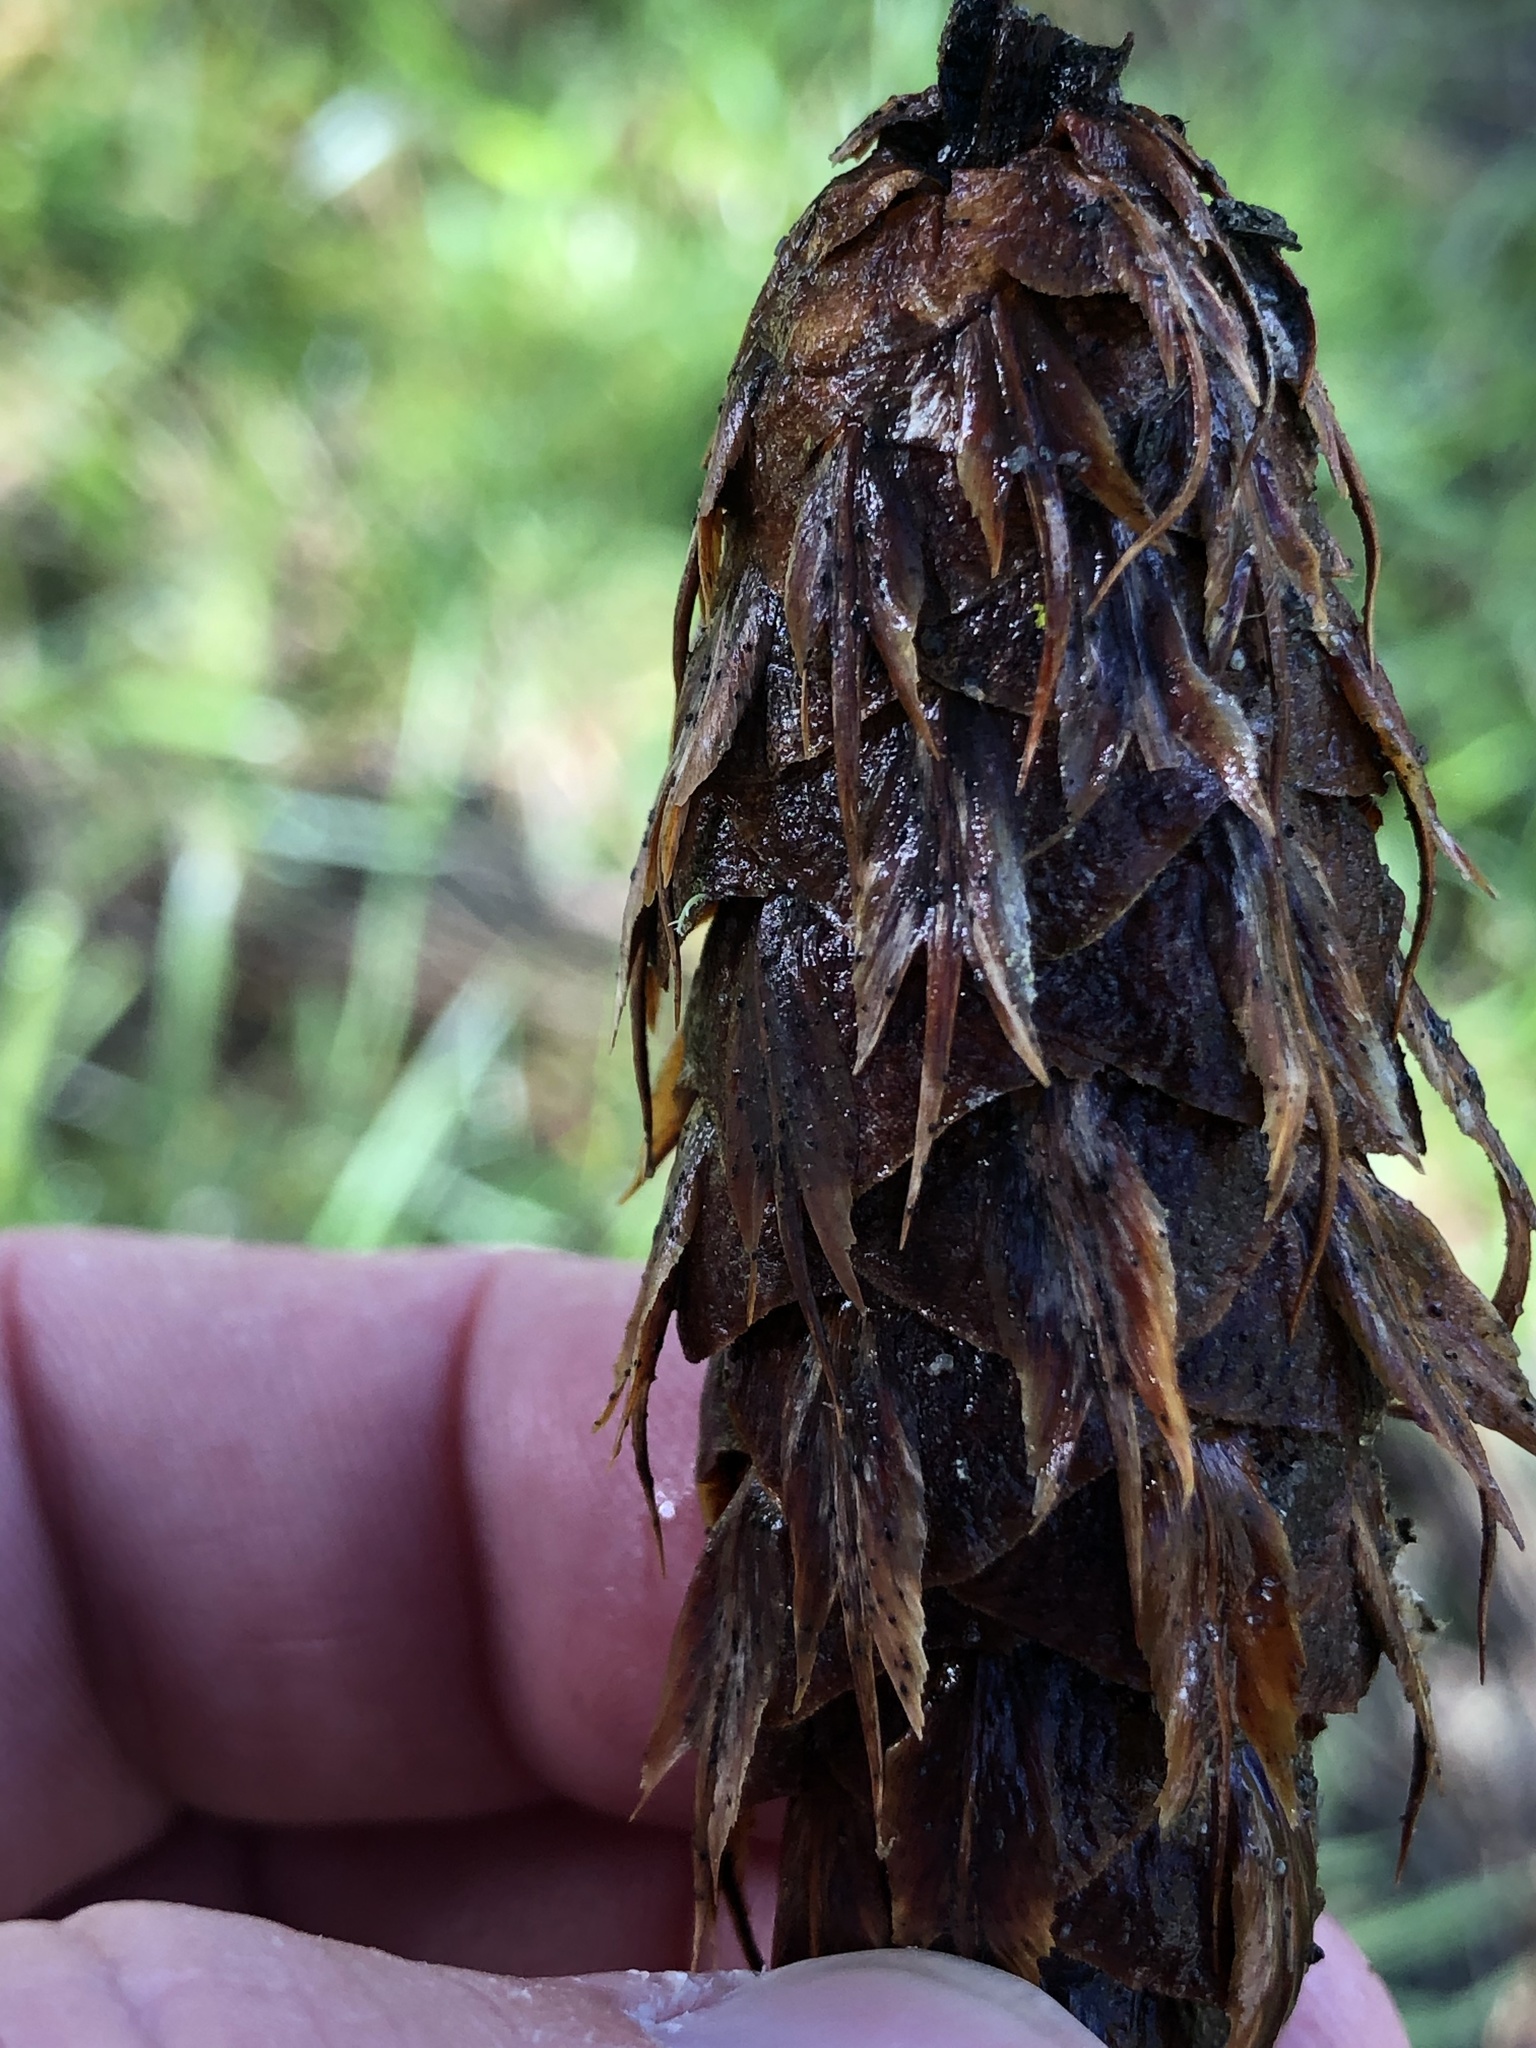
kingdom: Plantae
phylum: Tracheophyta
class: Pinopsida
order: Pinales
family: Pinaceae
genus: Pseudotsuga
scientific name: Pseudotsuga menziesii
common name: Douglas fir
